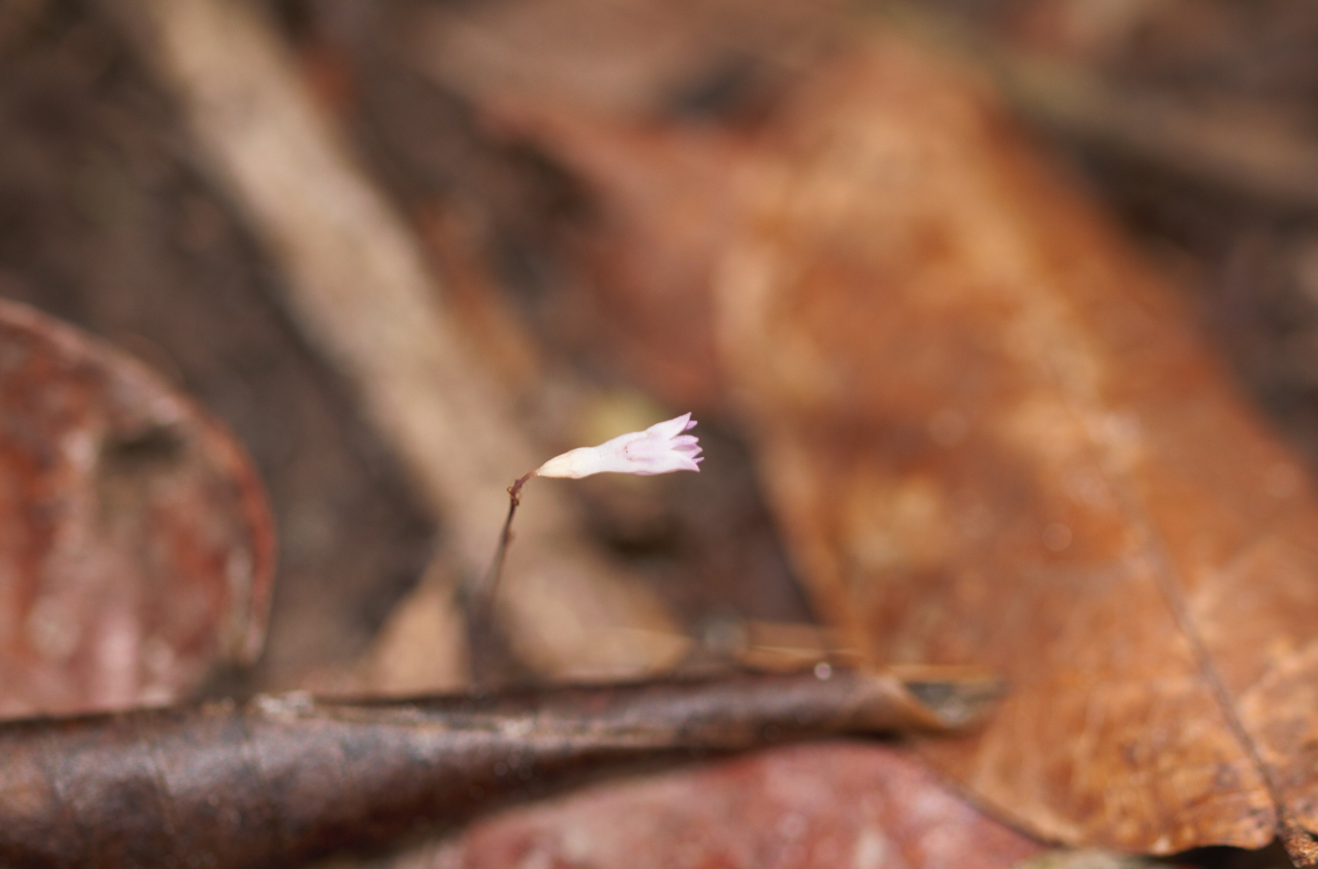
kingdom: Plantae
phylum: Tracheophyta
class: Liliopsida
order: Dioscoreales
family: Burmanniaceae
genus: Apteria
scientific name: Apteria aphylla
